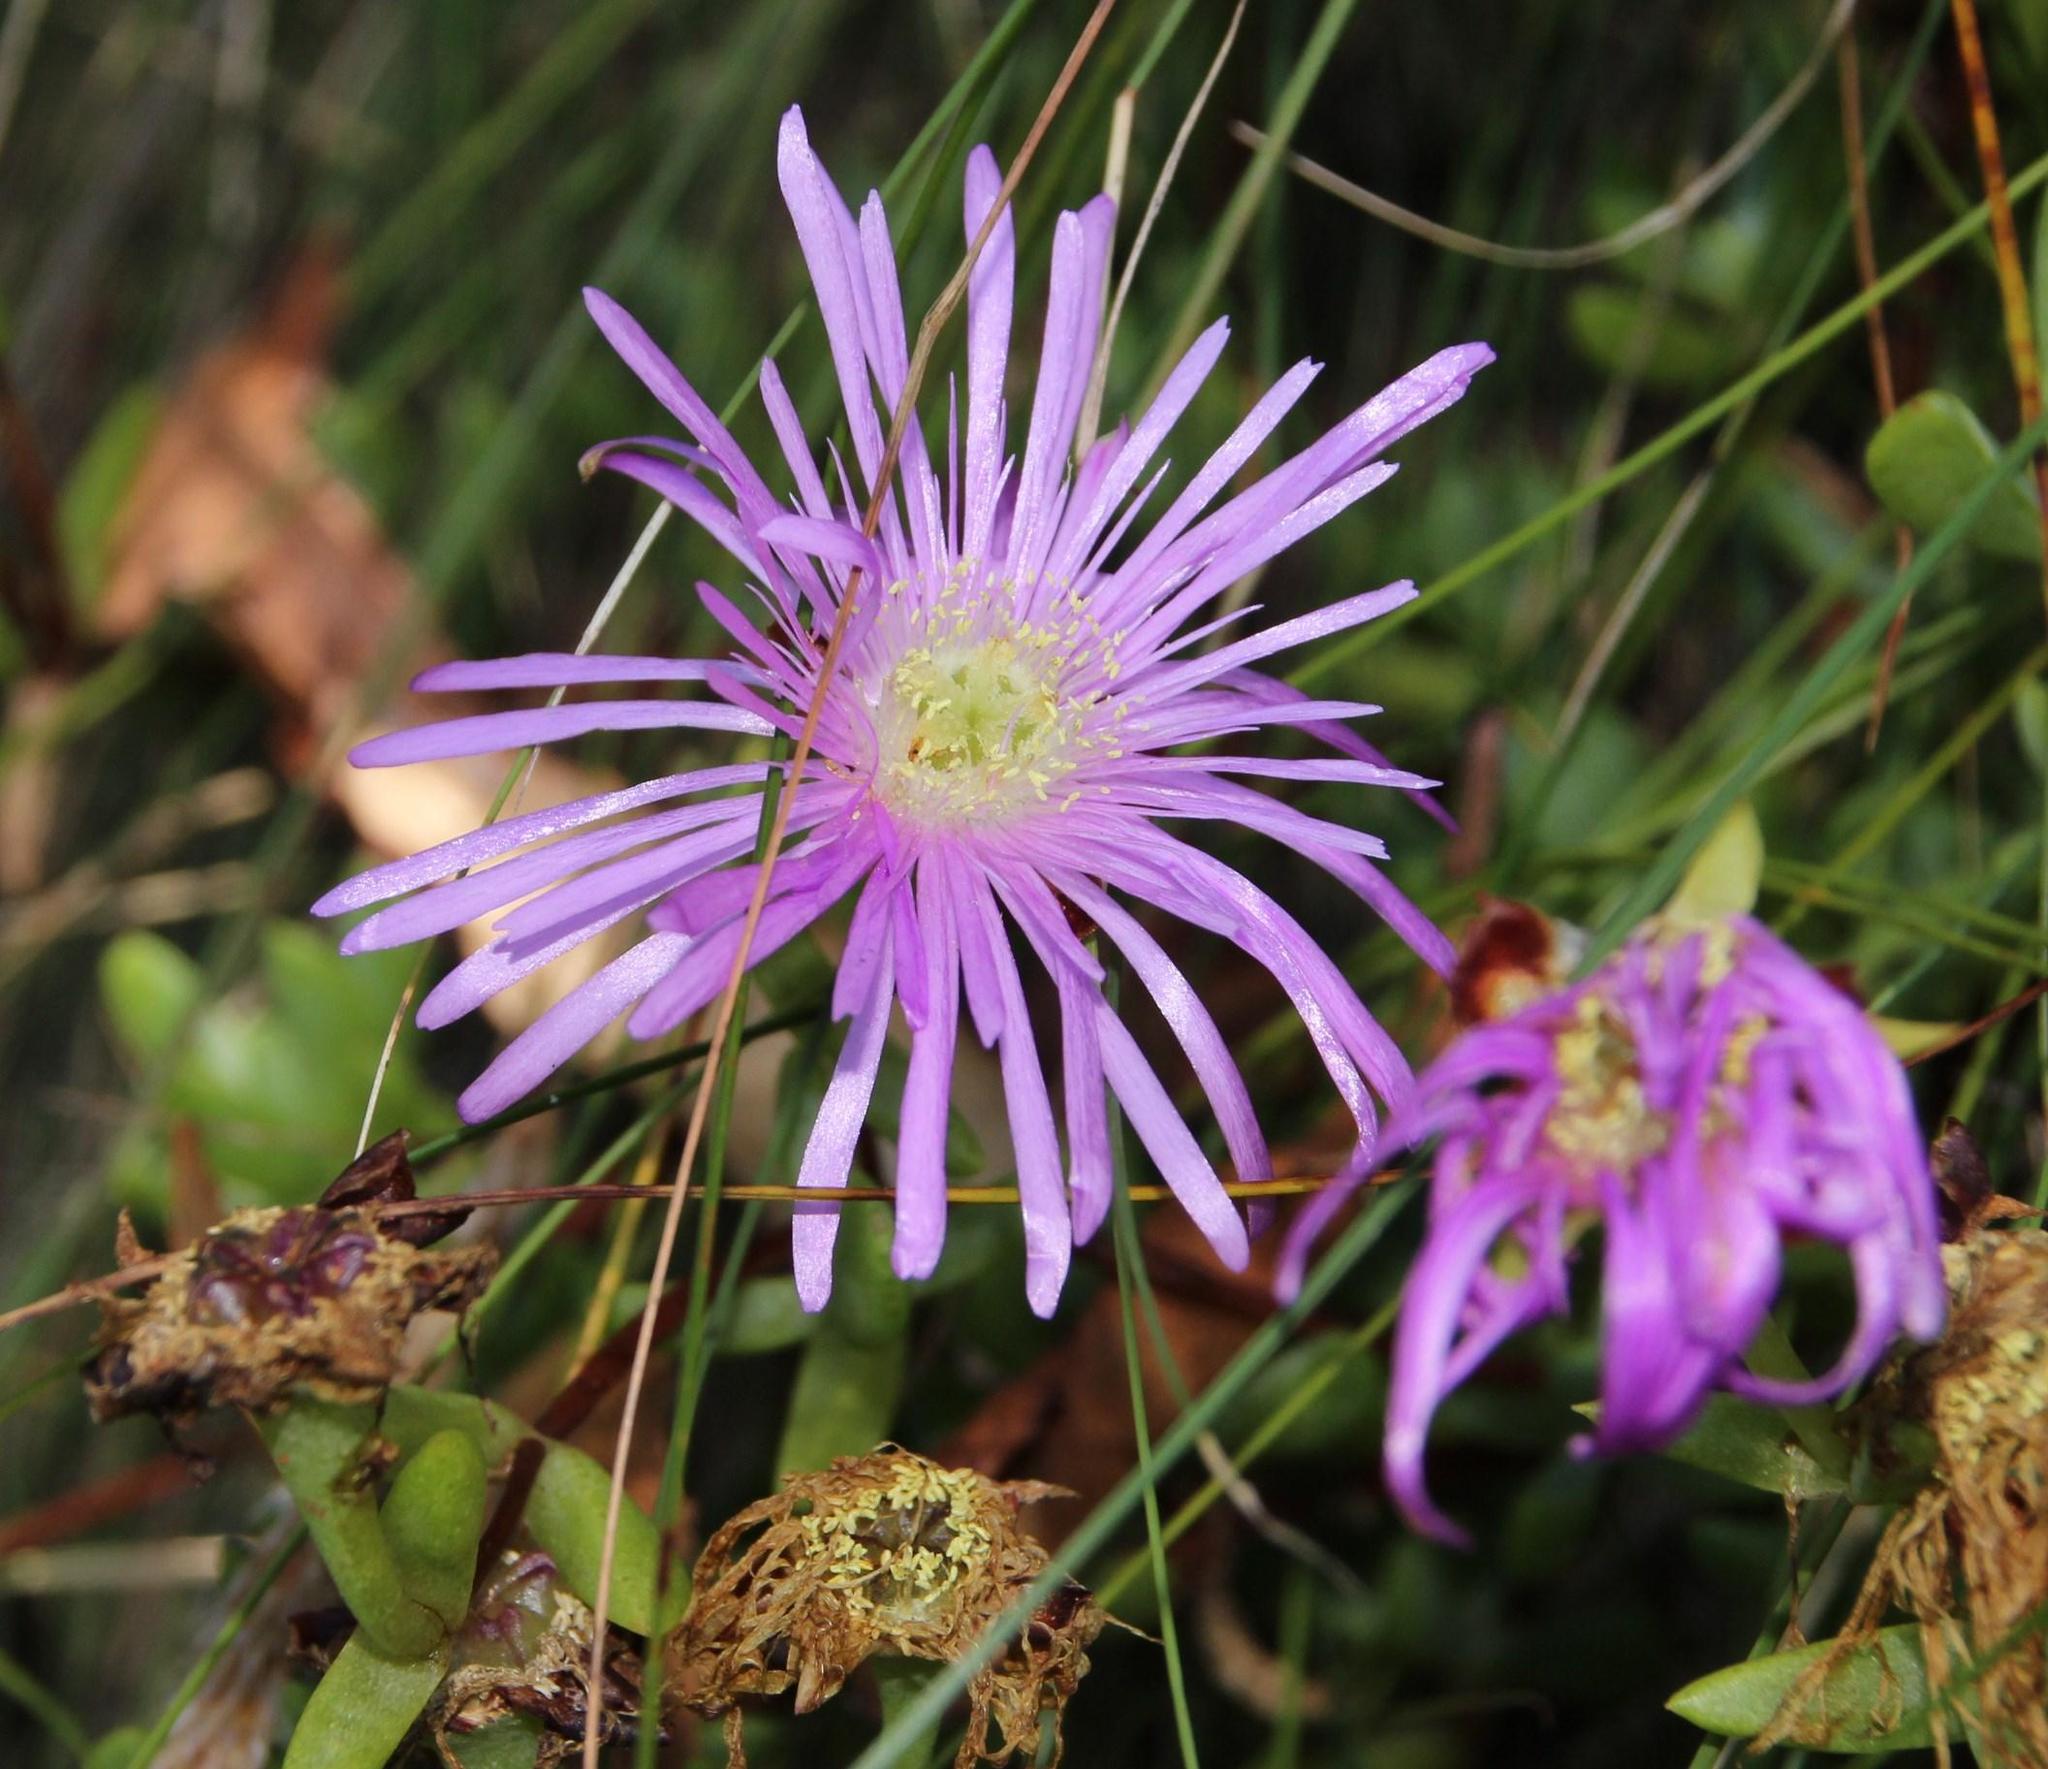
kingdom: Plantae
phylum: Tracheophyta
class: Magnoliopsida
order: Caryophyllales
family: Aizoaceae
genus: Oscularia
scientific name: Oscularia falciformis
